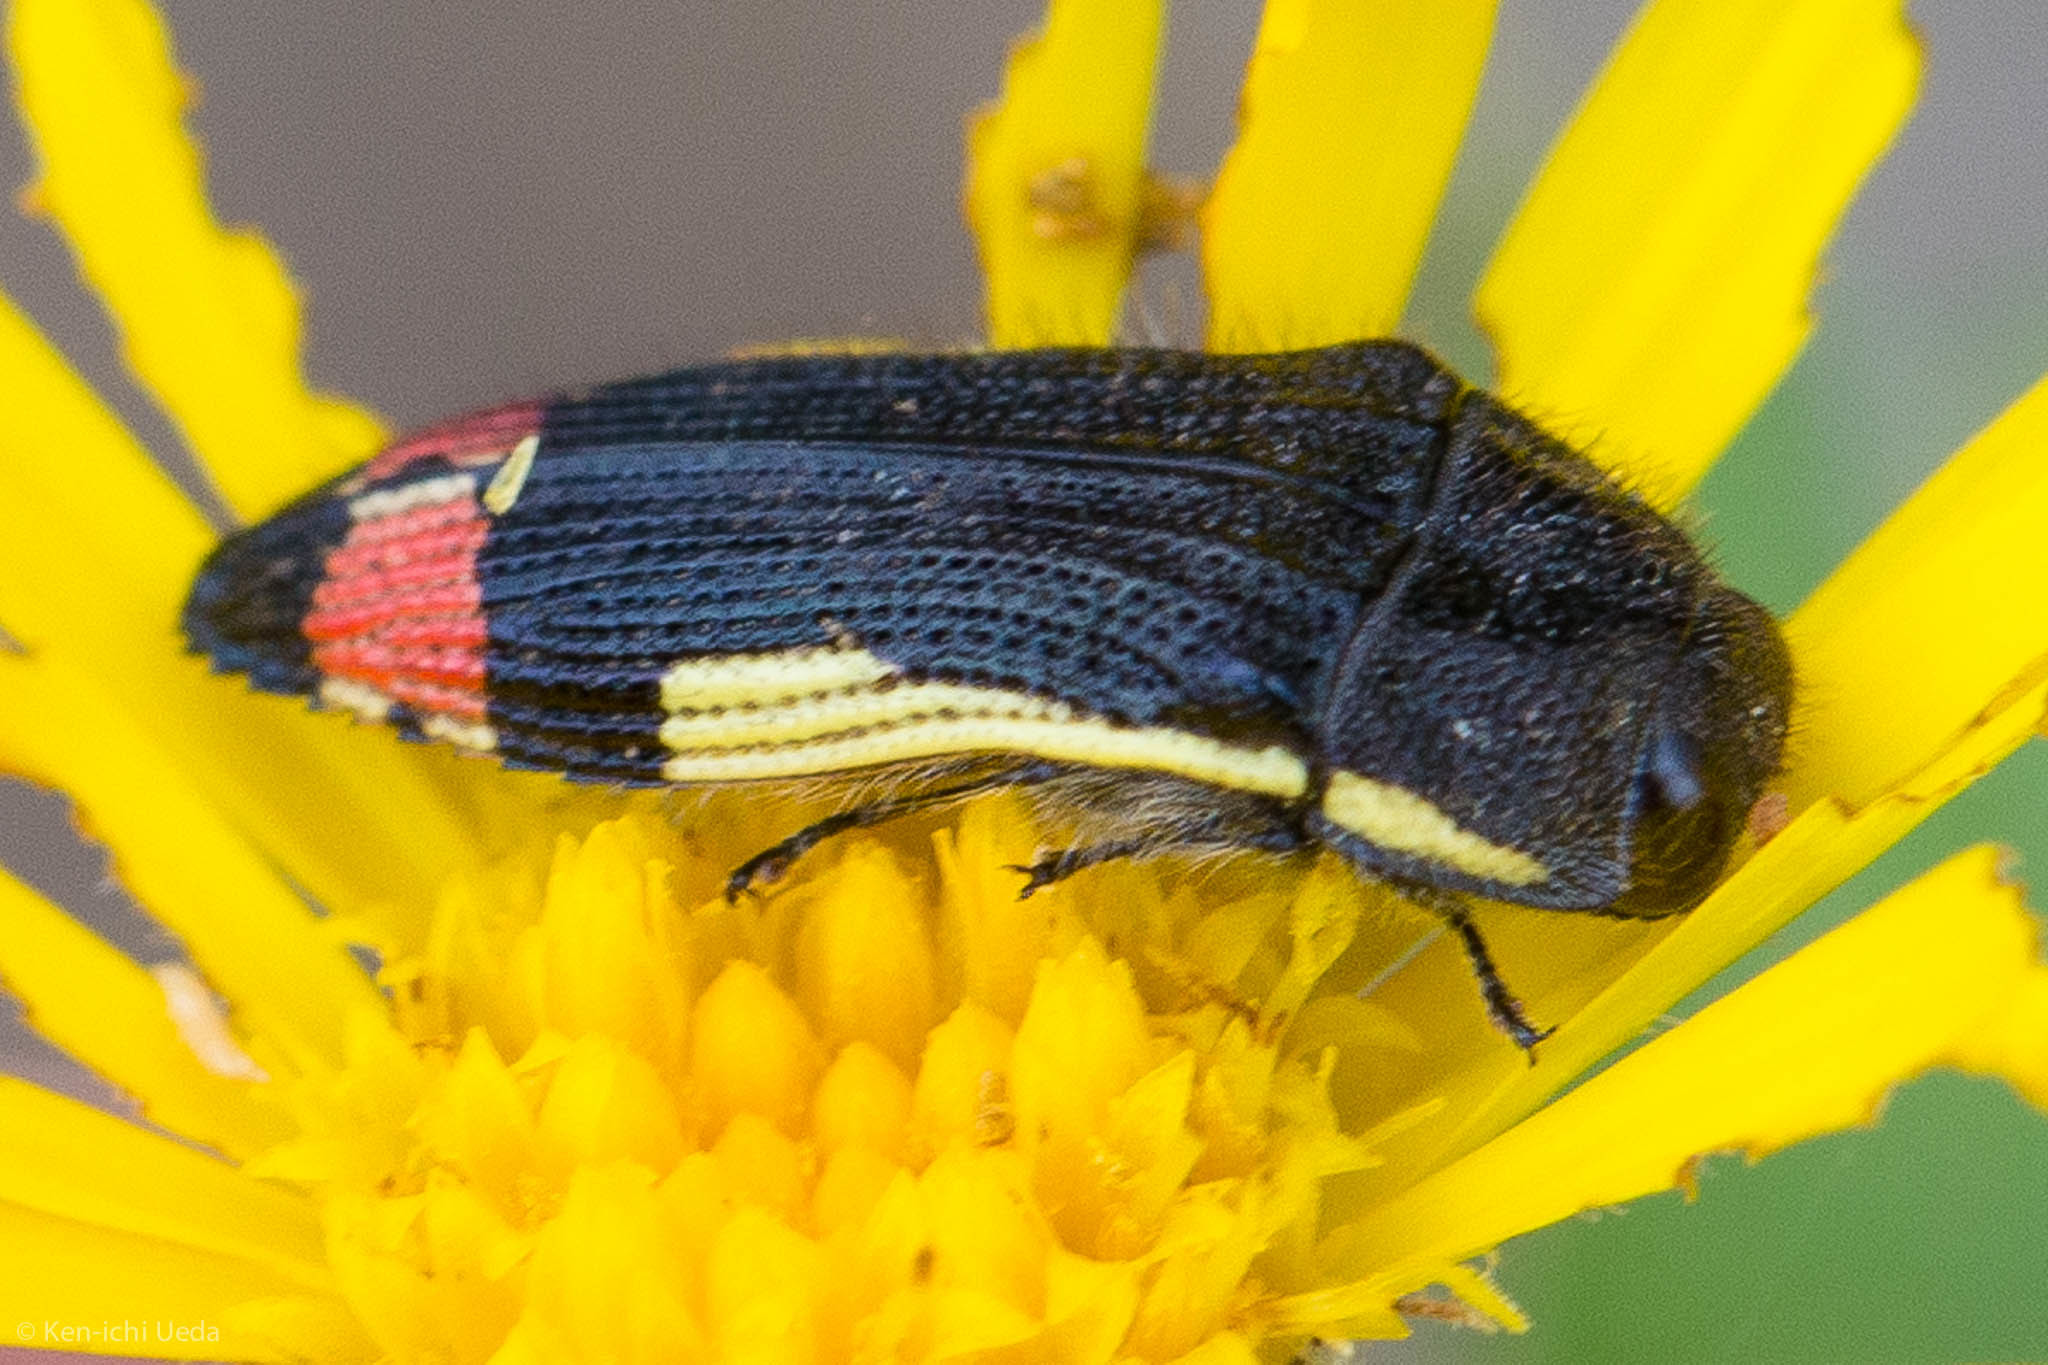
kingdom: Animalia
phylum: Arthropoda
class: Insecta
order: Coleoptera
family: Buprestidae
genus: Acmaeodera
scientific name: Acmaeodera flavomarginata
